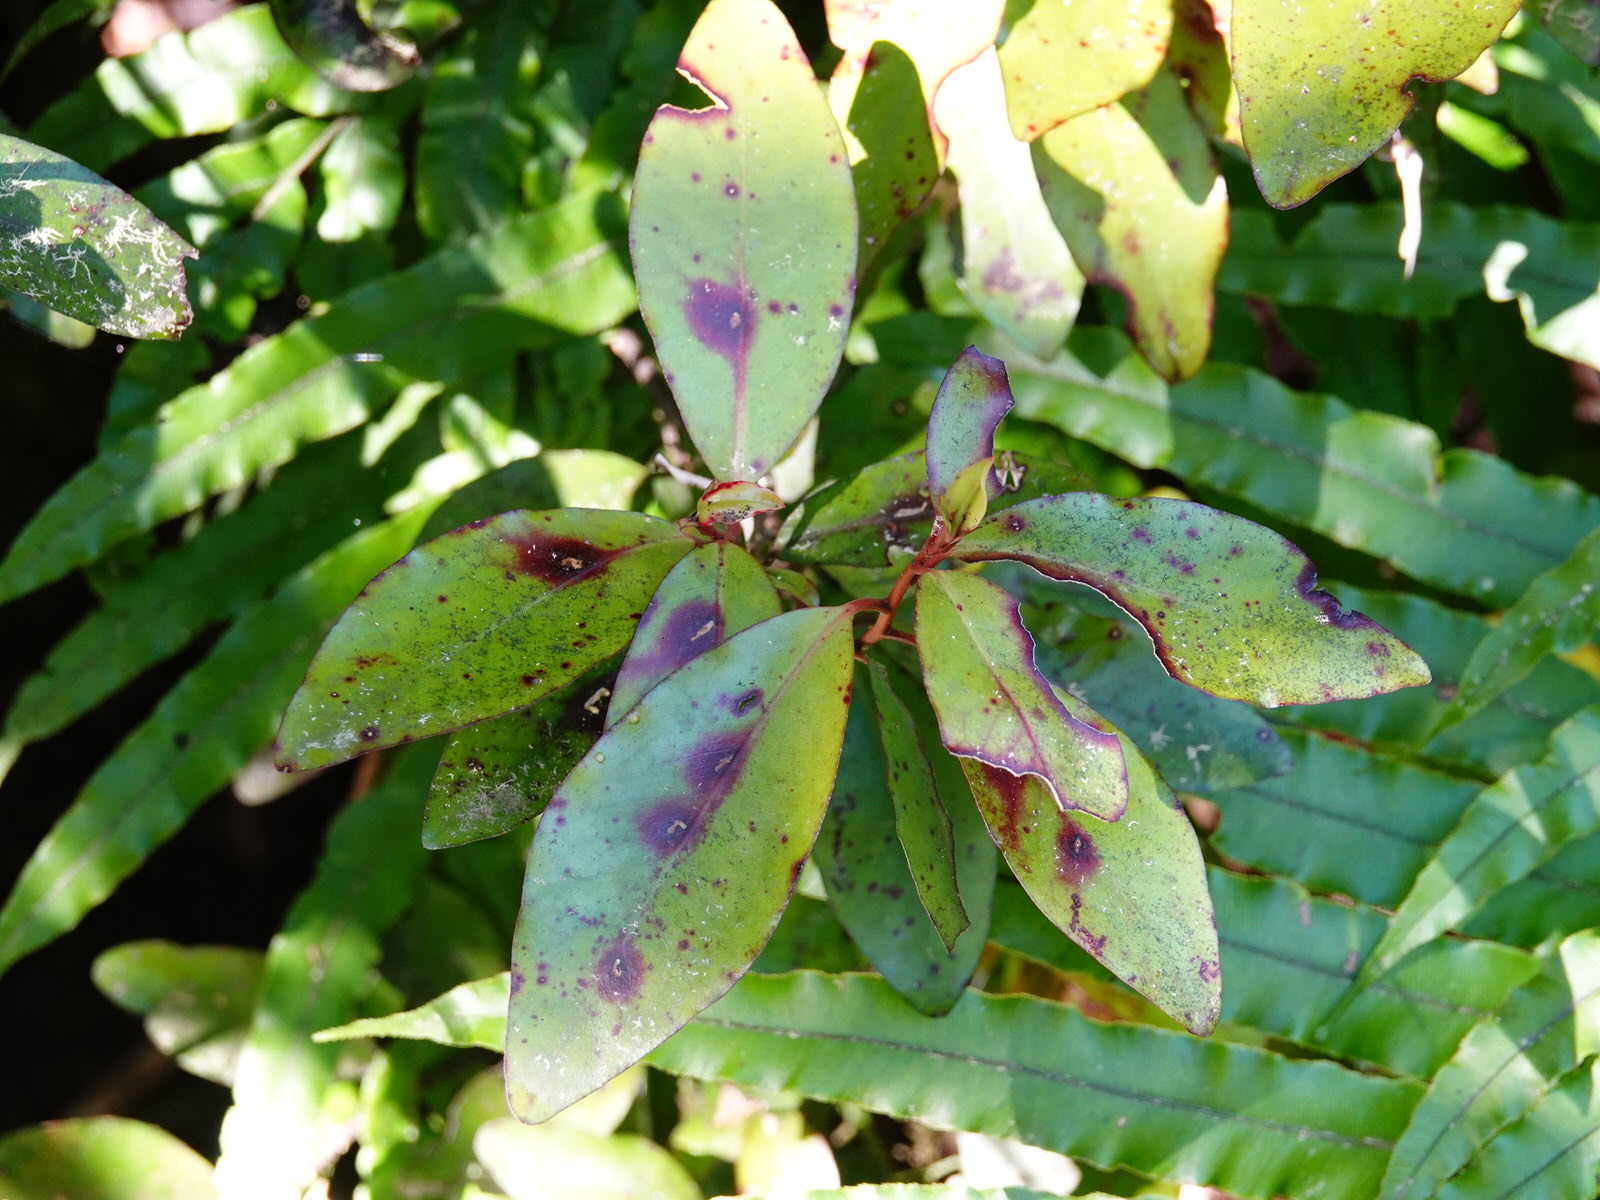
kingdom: Plantae
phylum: Tracheophyta
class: Magnoliopsida
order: Canellales
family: Winteraceae
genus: Pseudowintera
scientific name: Pseudowintera colorata
